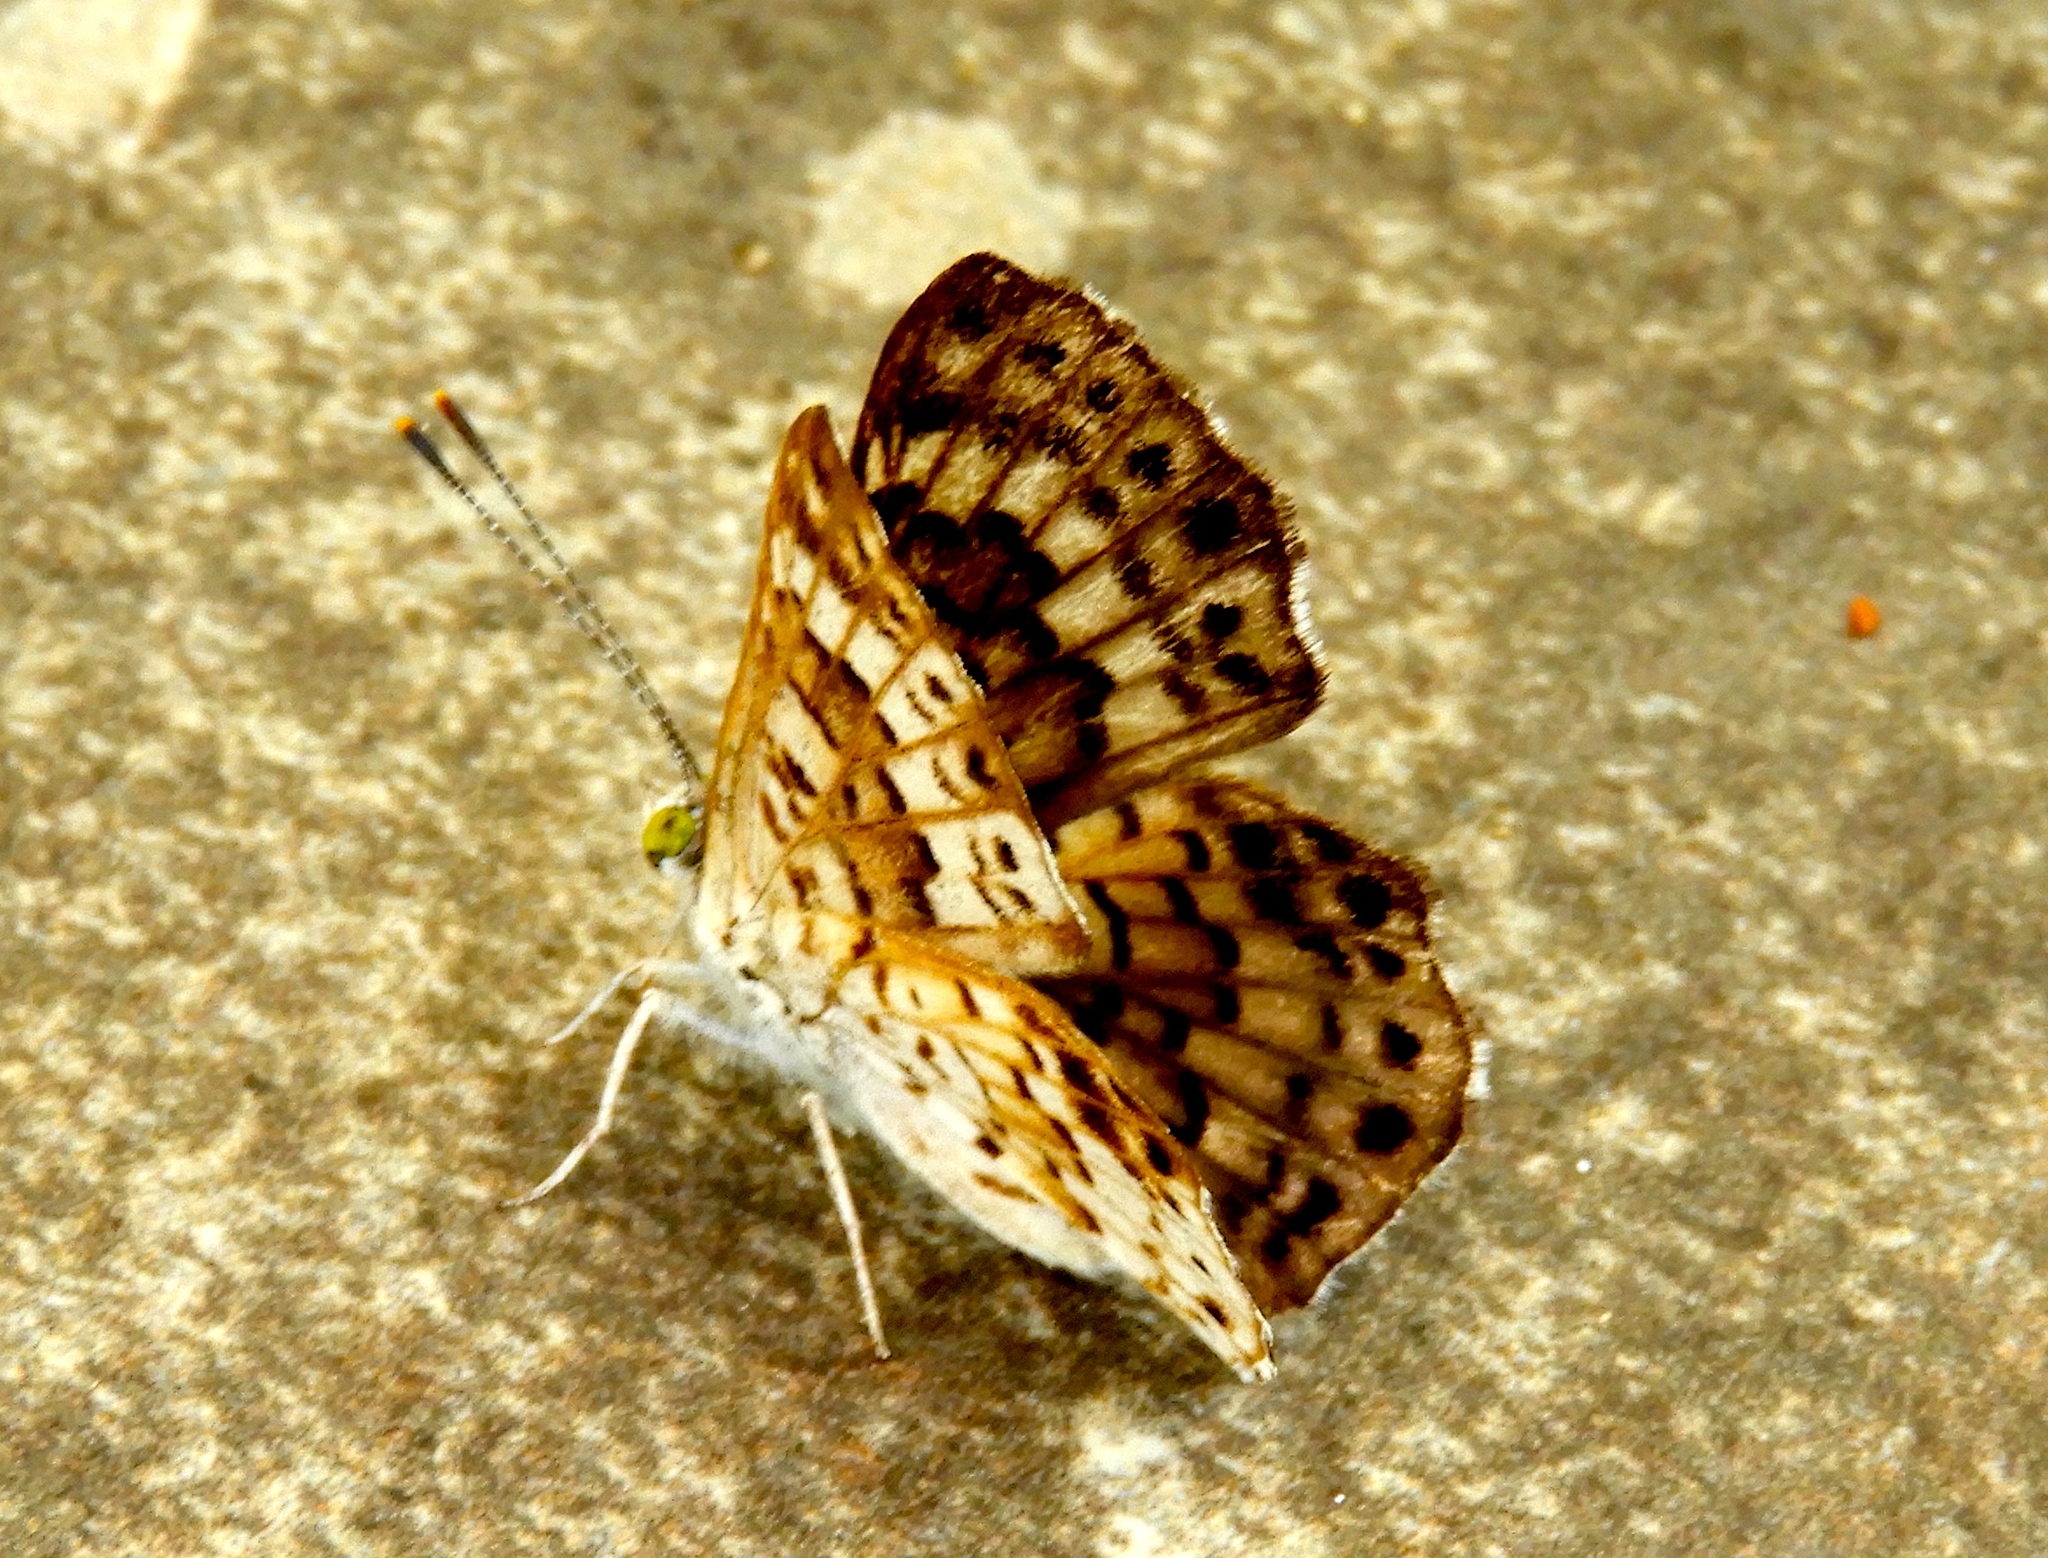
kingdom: Animalia
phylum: Arthropoda
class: Insecta
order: Lepidoptera
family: Riodinidae
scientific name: Riodinidae
